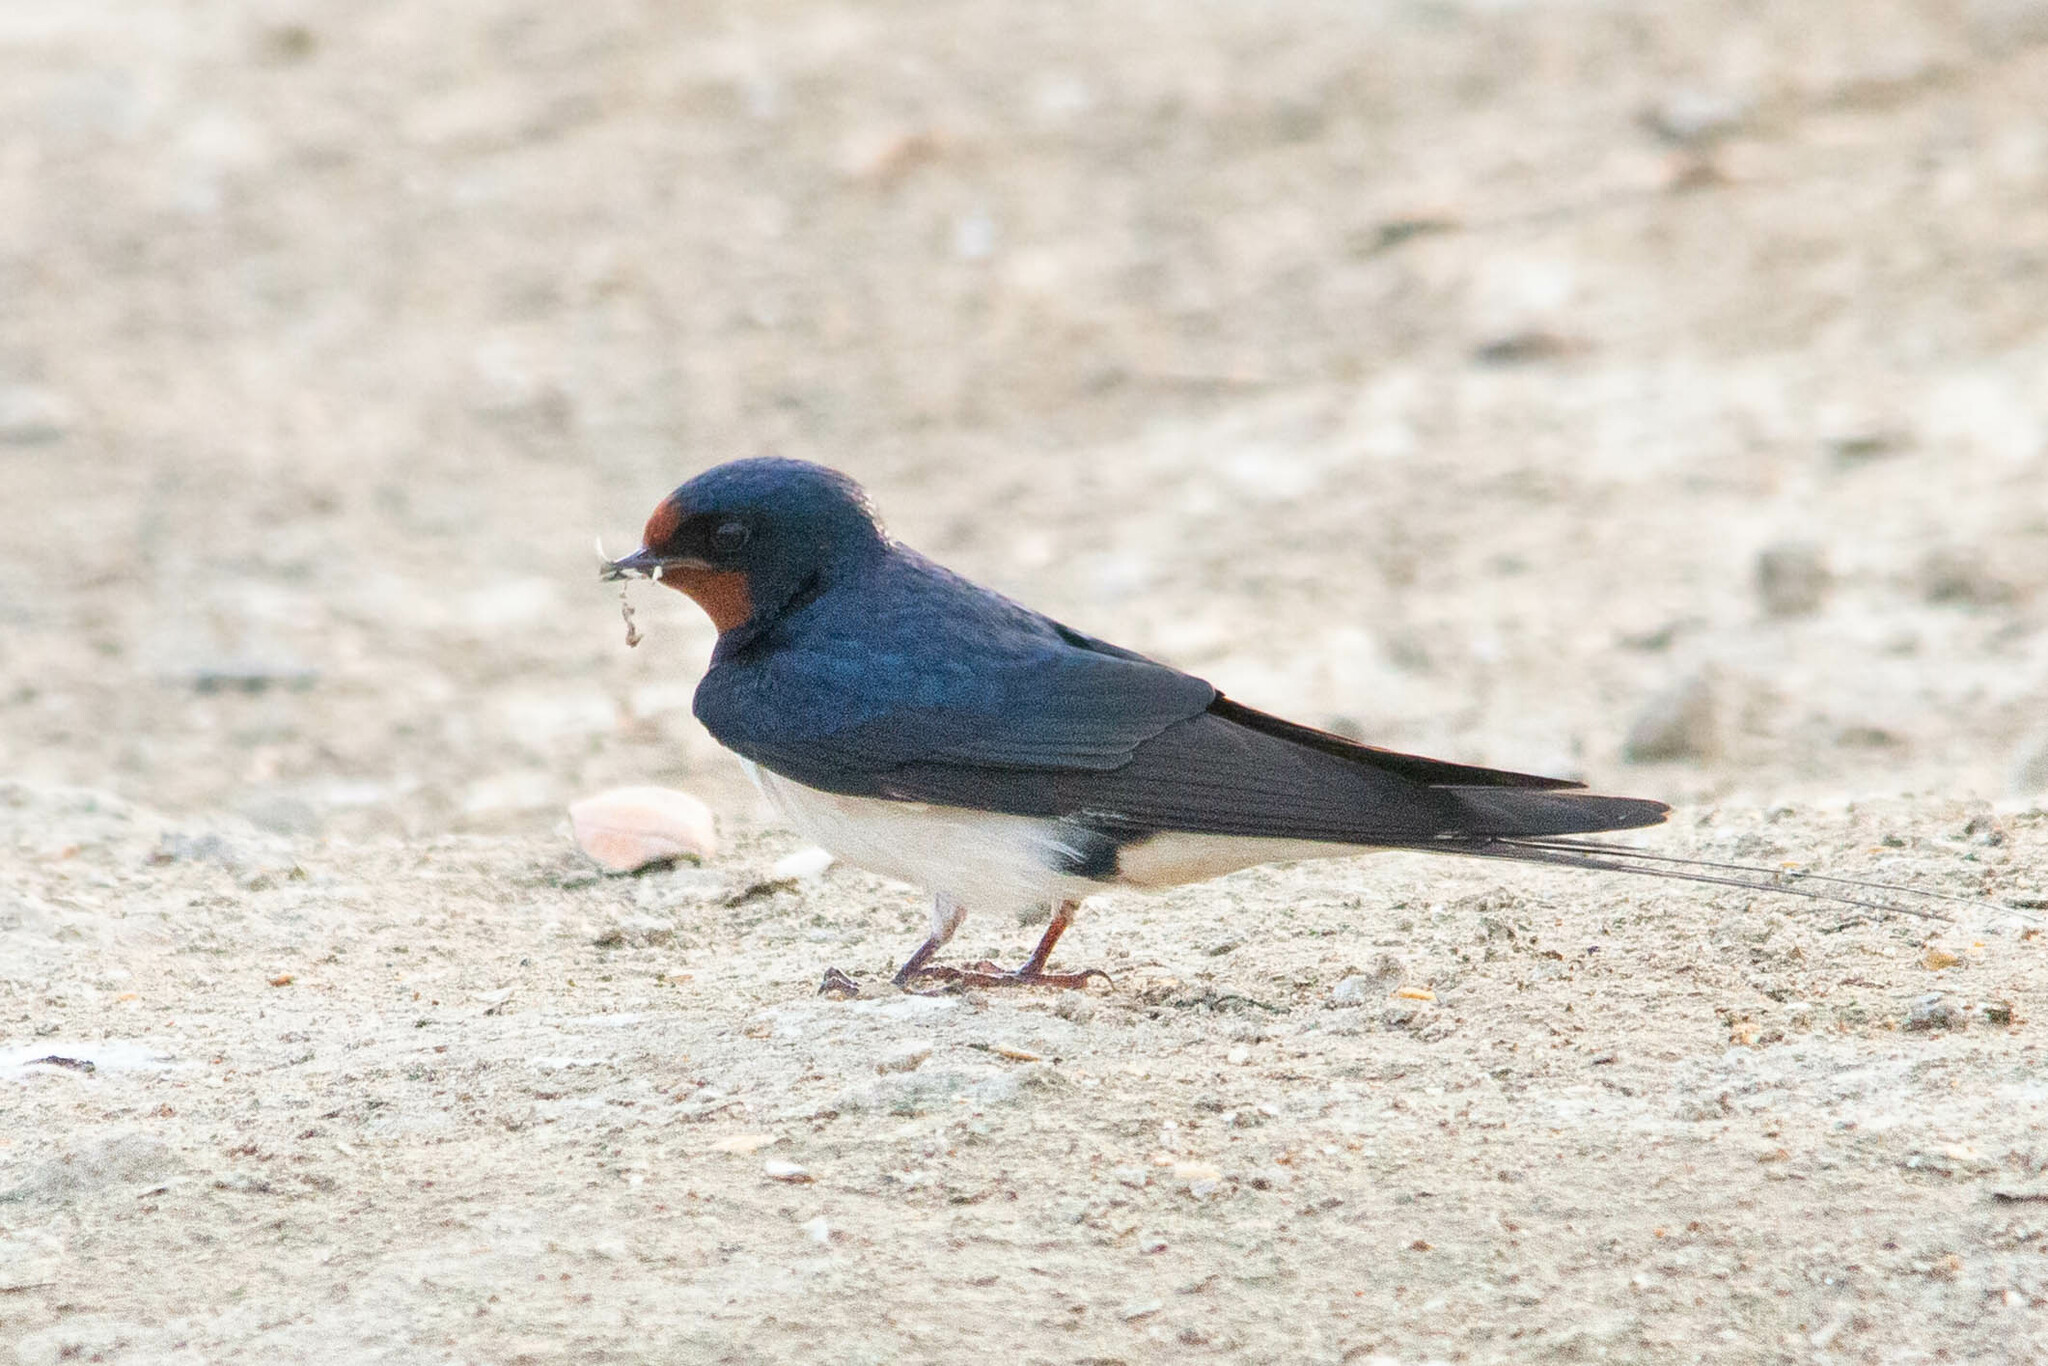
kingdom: Animalia
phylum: Chordata
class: Aves
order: Passeriformes
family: Hirundinidae
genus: Hirundo
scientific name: Hirundo rustica
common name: Barn swallow
